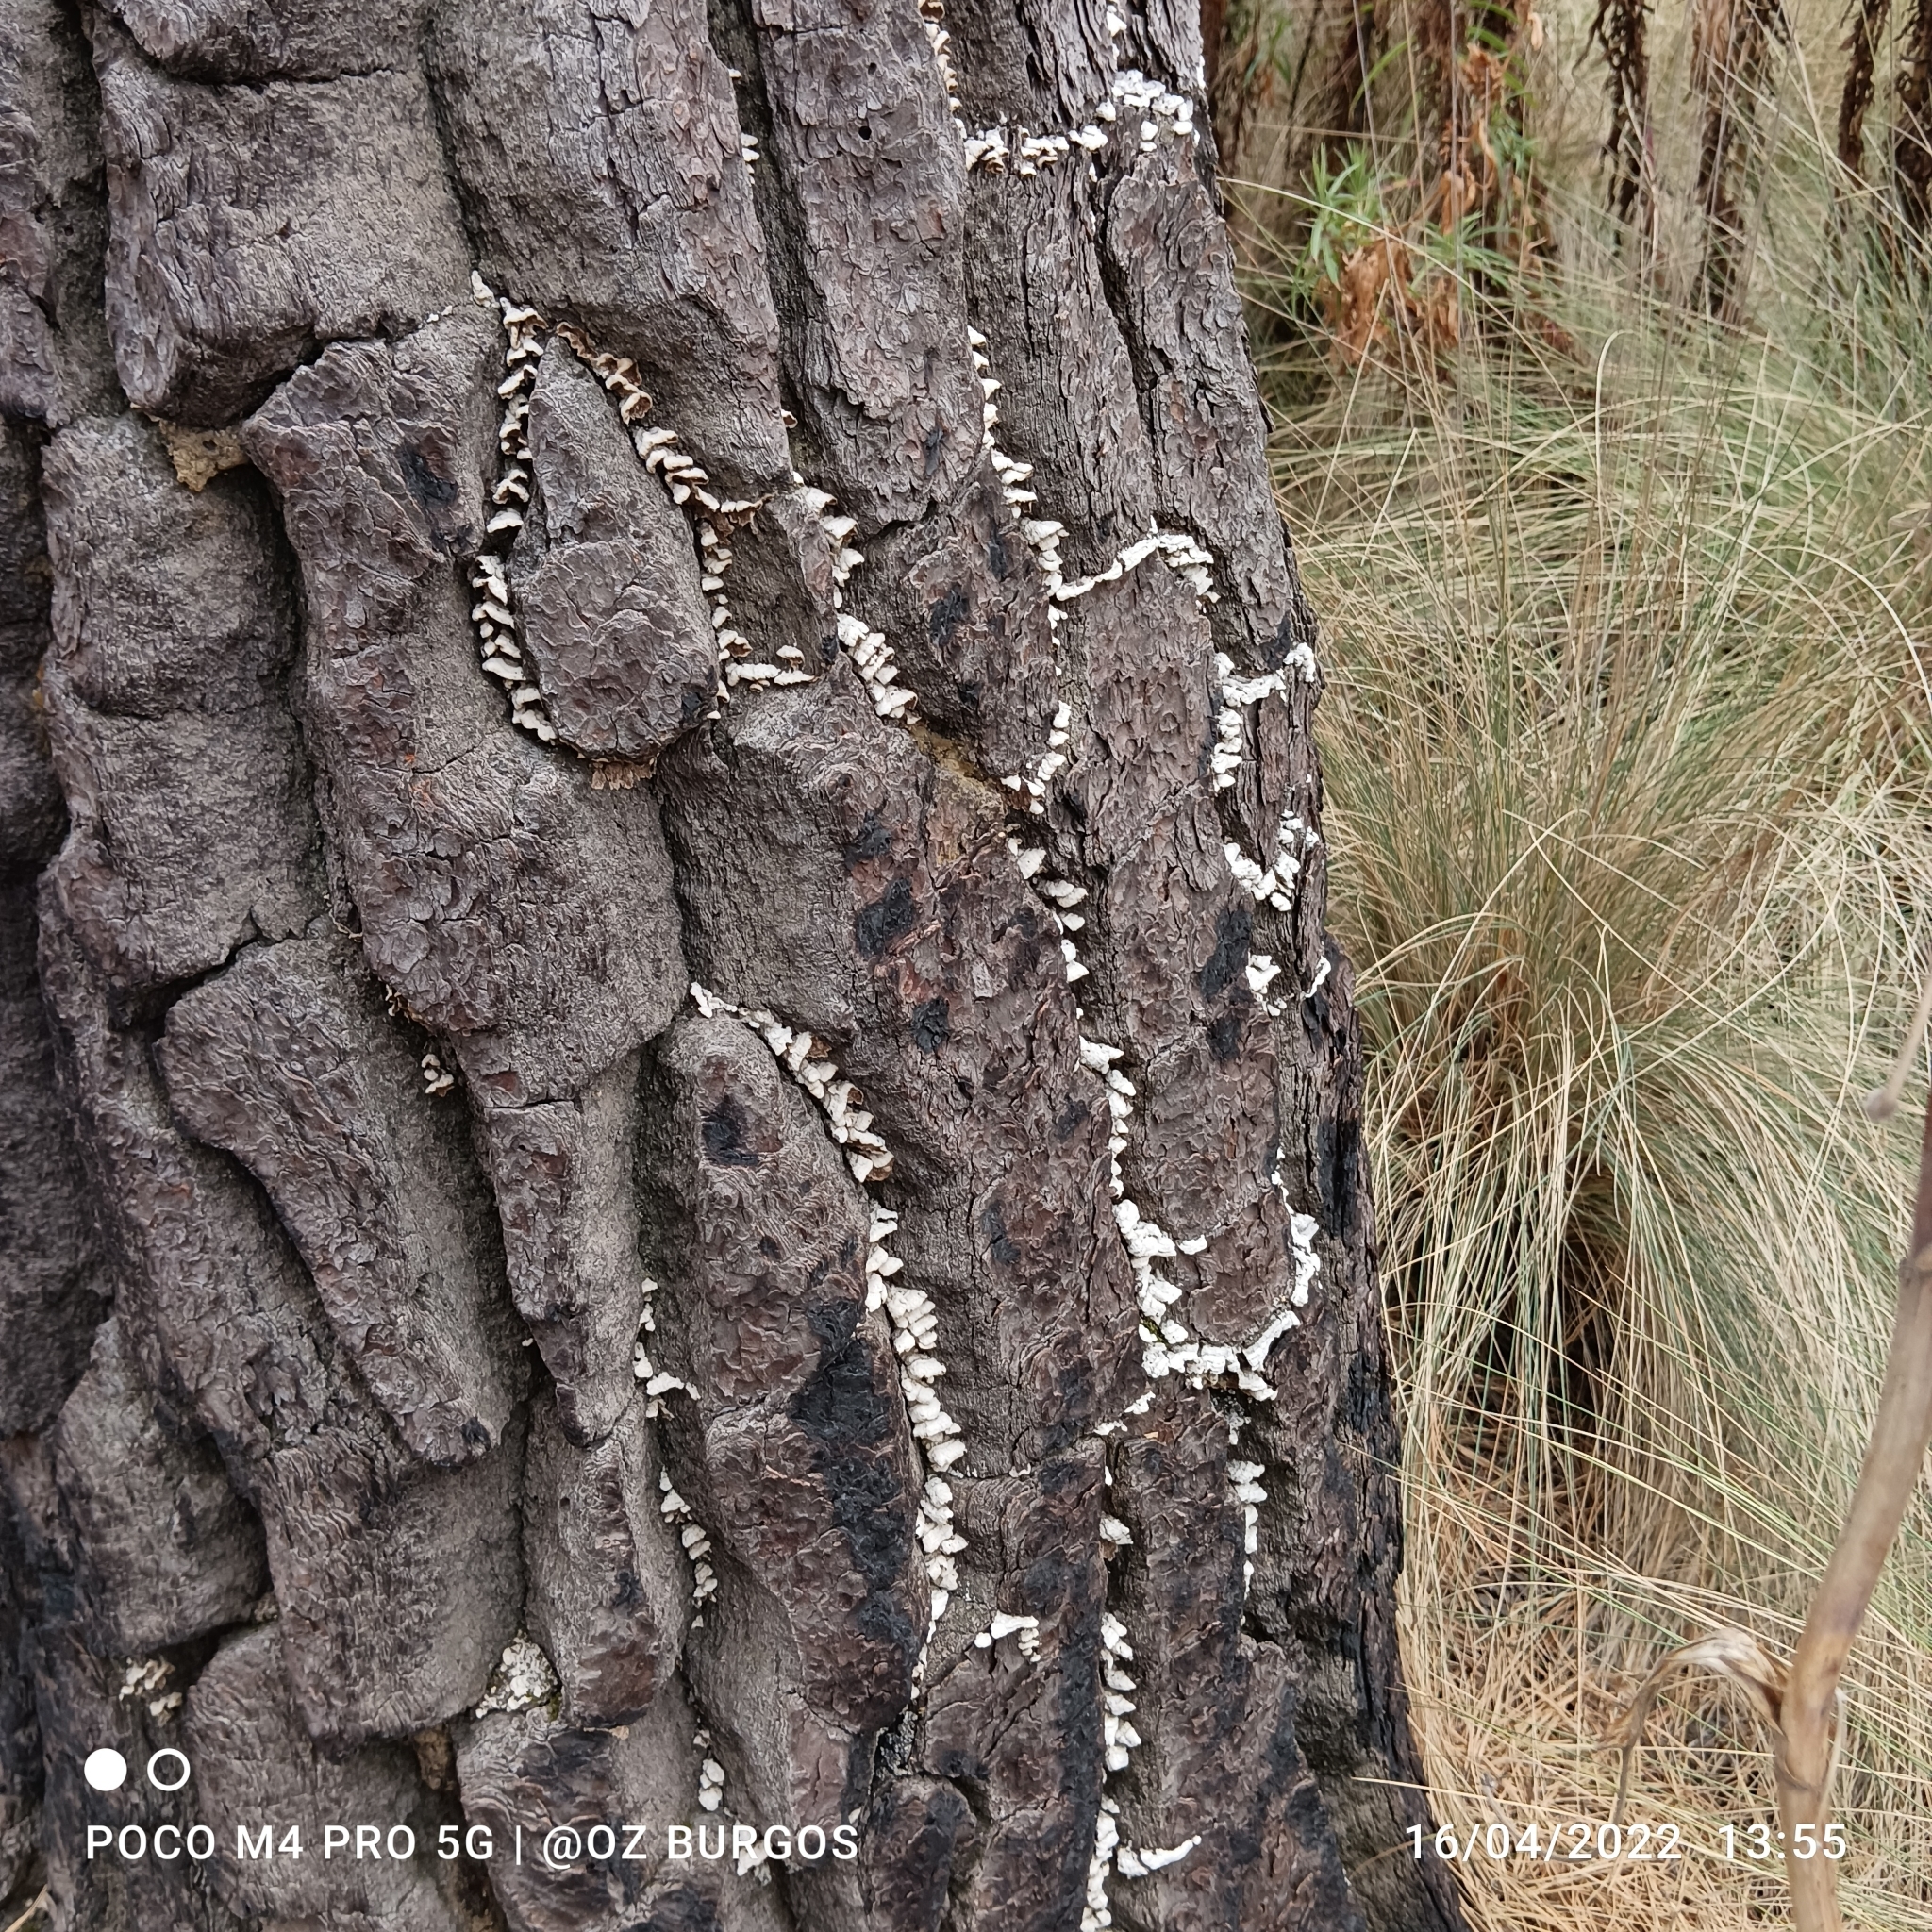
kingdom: Fungi
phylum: Basidiomycota
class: Agaricomycetes
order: Agaricales
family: Schizophyllaceae
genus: Schizophyllum
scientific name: Schizophyllum commune
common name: Common porecrust
